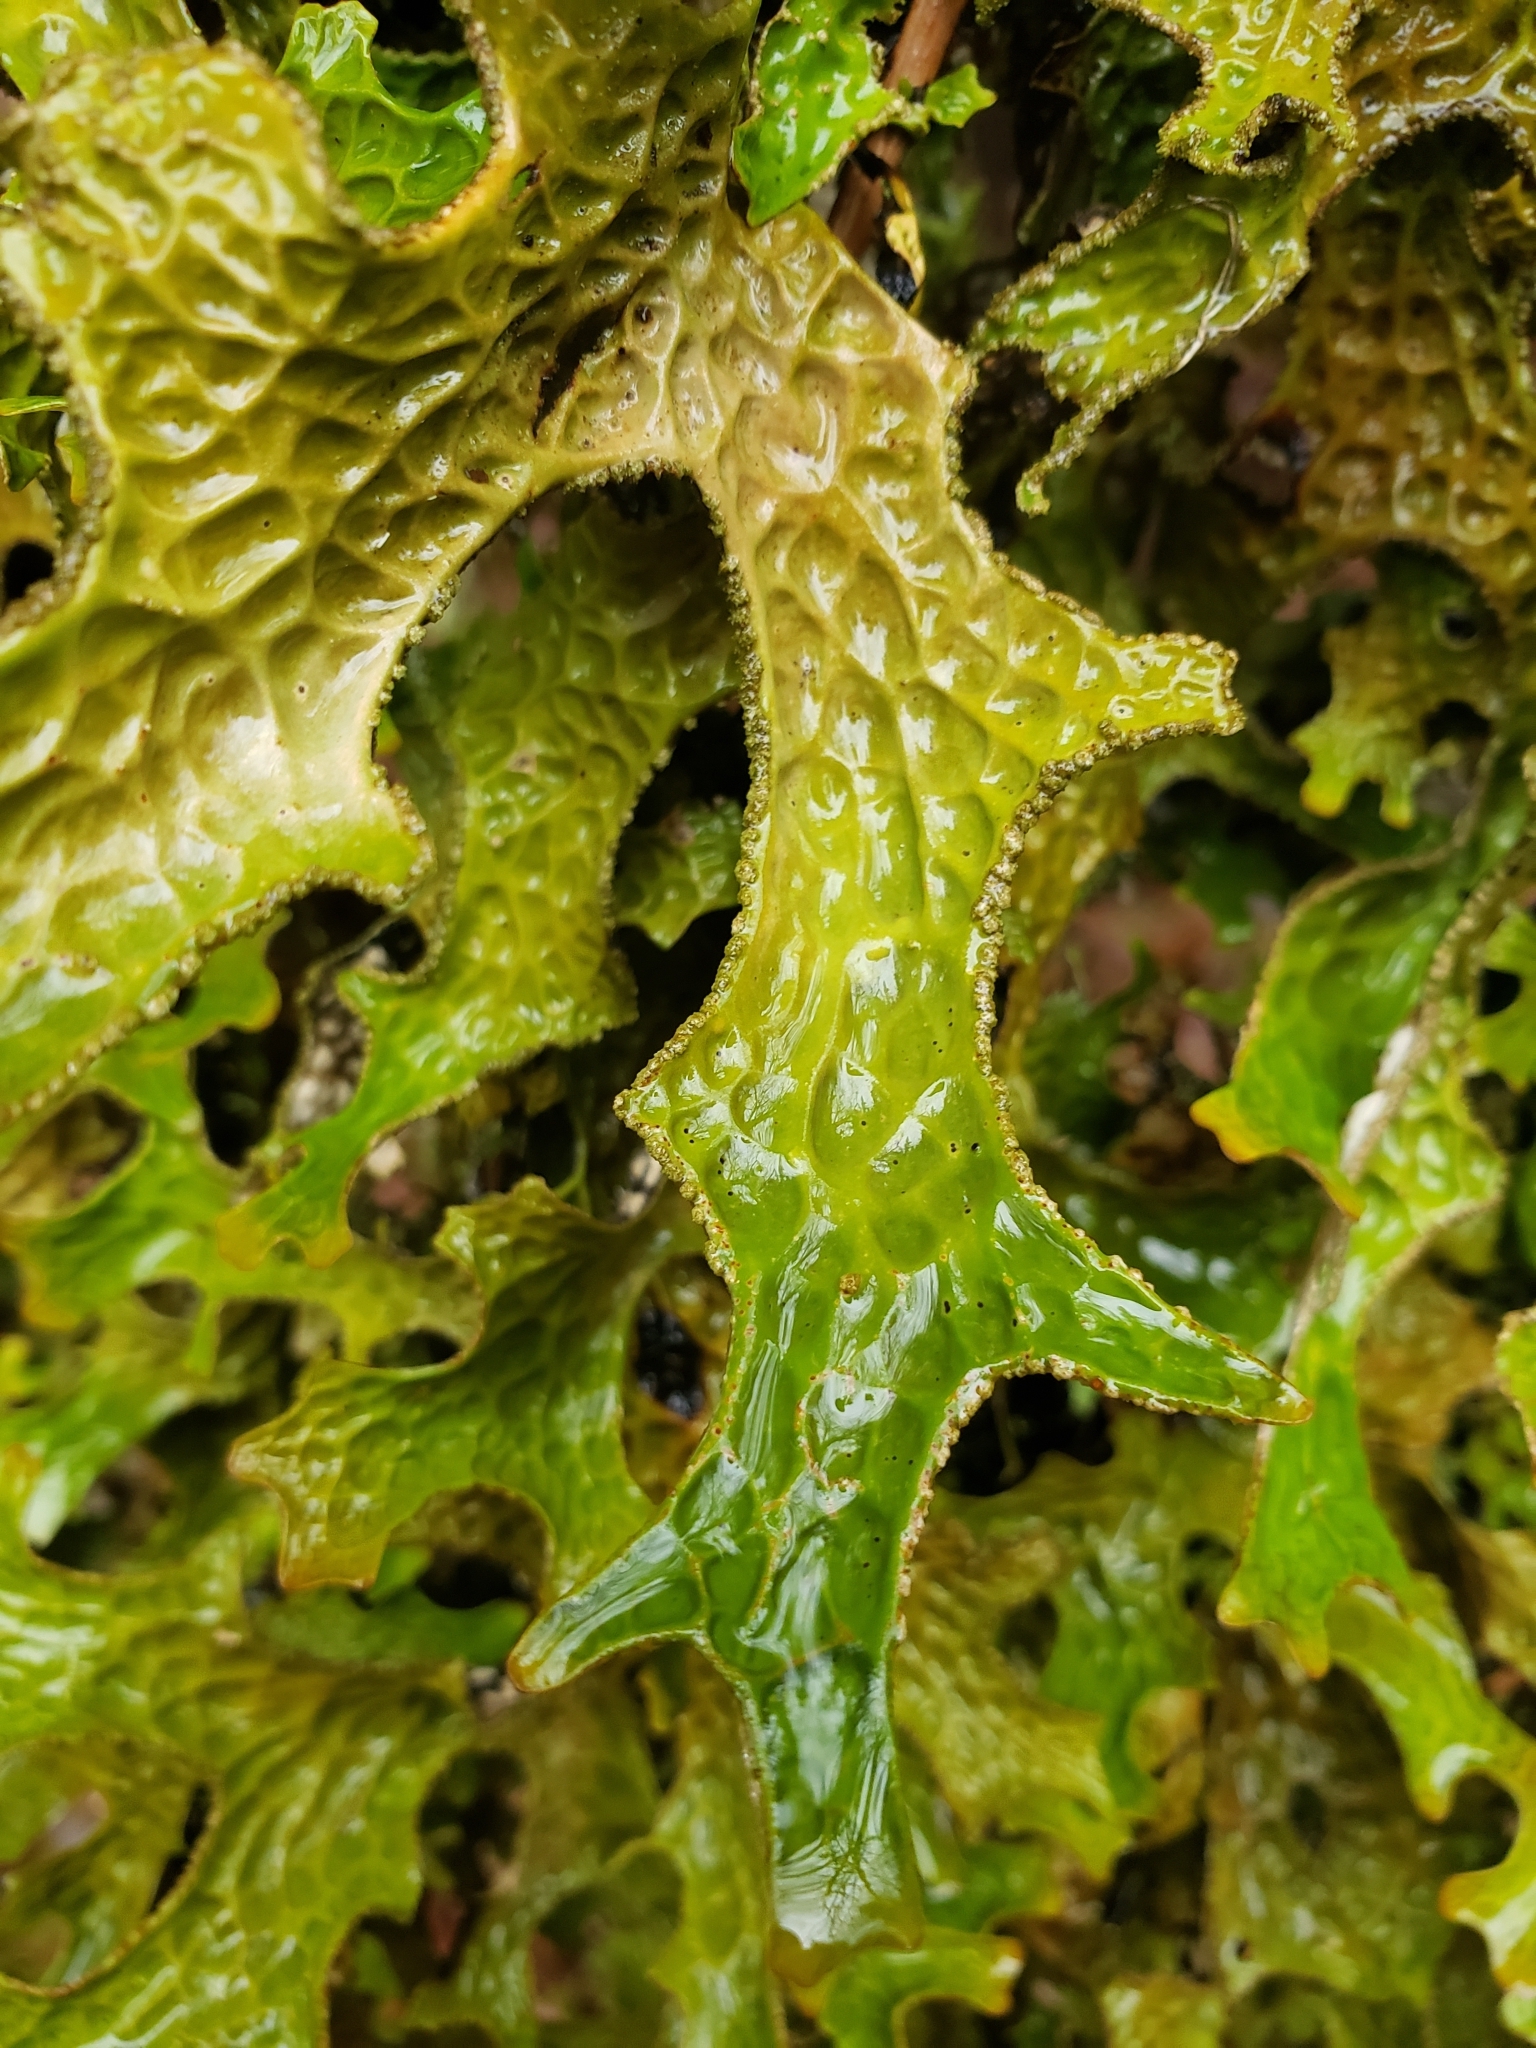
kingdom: Fungi
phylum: Ascomycota
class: Lecanoromycetes
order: Peltigerales
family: Lobariaceae
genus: Lobaria
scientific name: Lobaria pulmonaria
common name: Lungwort
